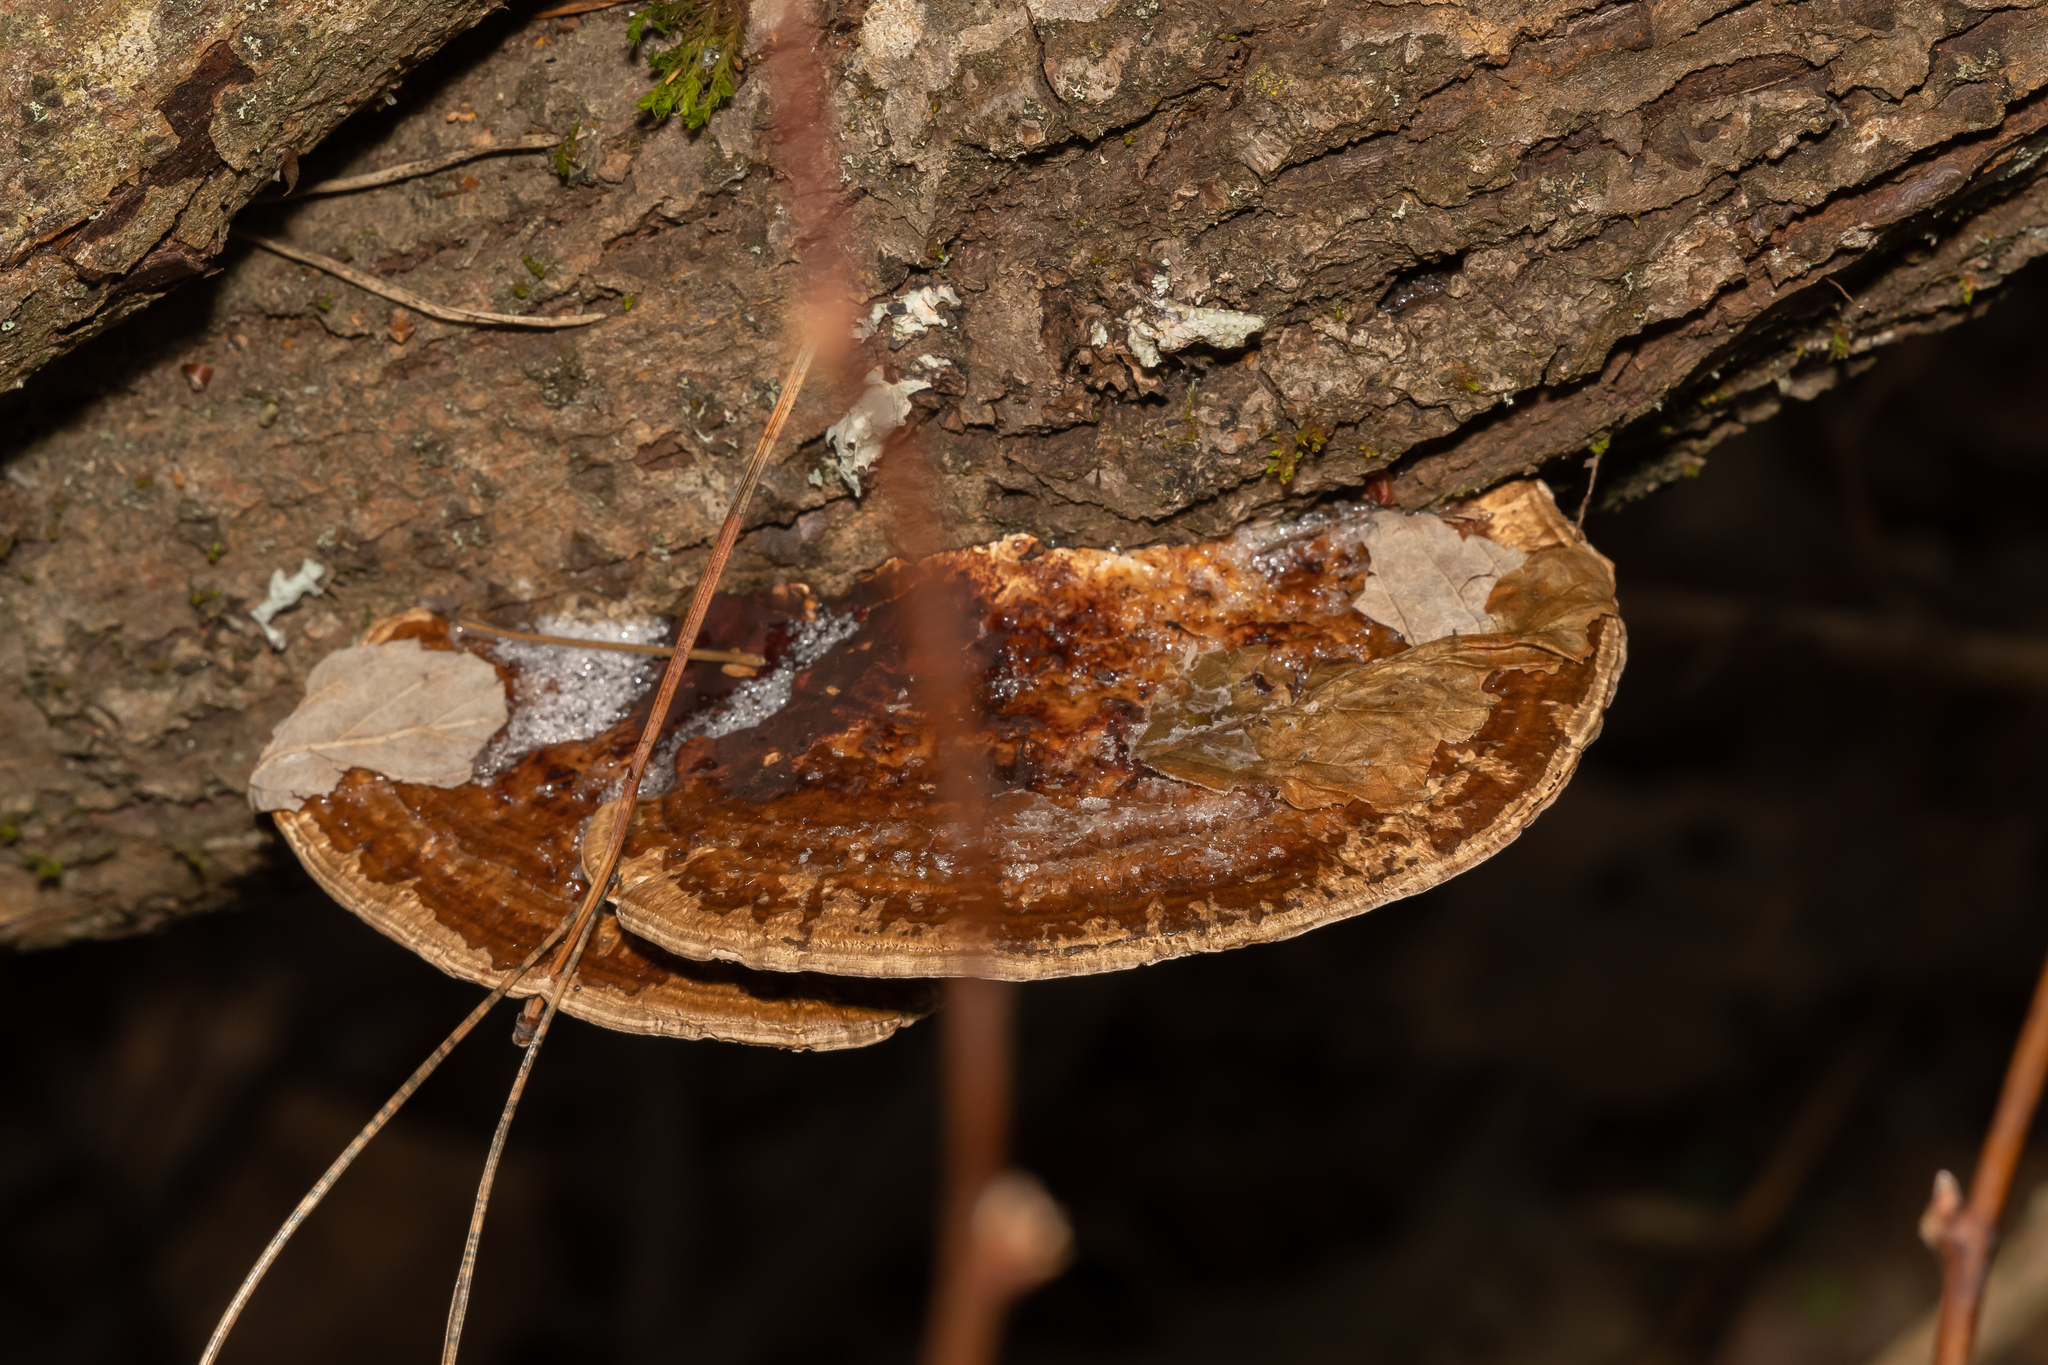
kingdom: Fungi
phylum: Basidiomycota
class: Agaricomycetes
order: Polyporales
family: Polyporaceae
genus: Daedaleopsis
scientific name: Daedaleopsis confragosa
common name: Blushing bracket
